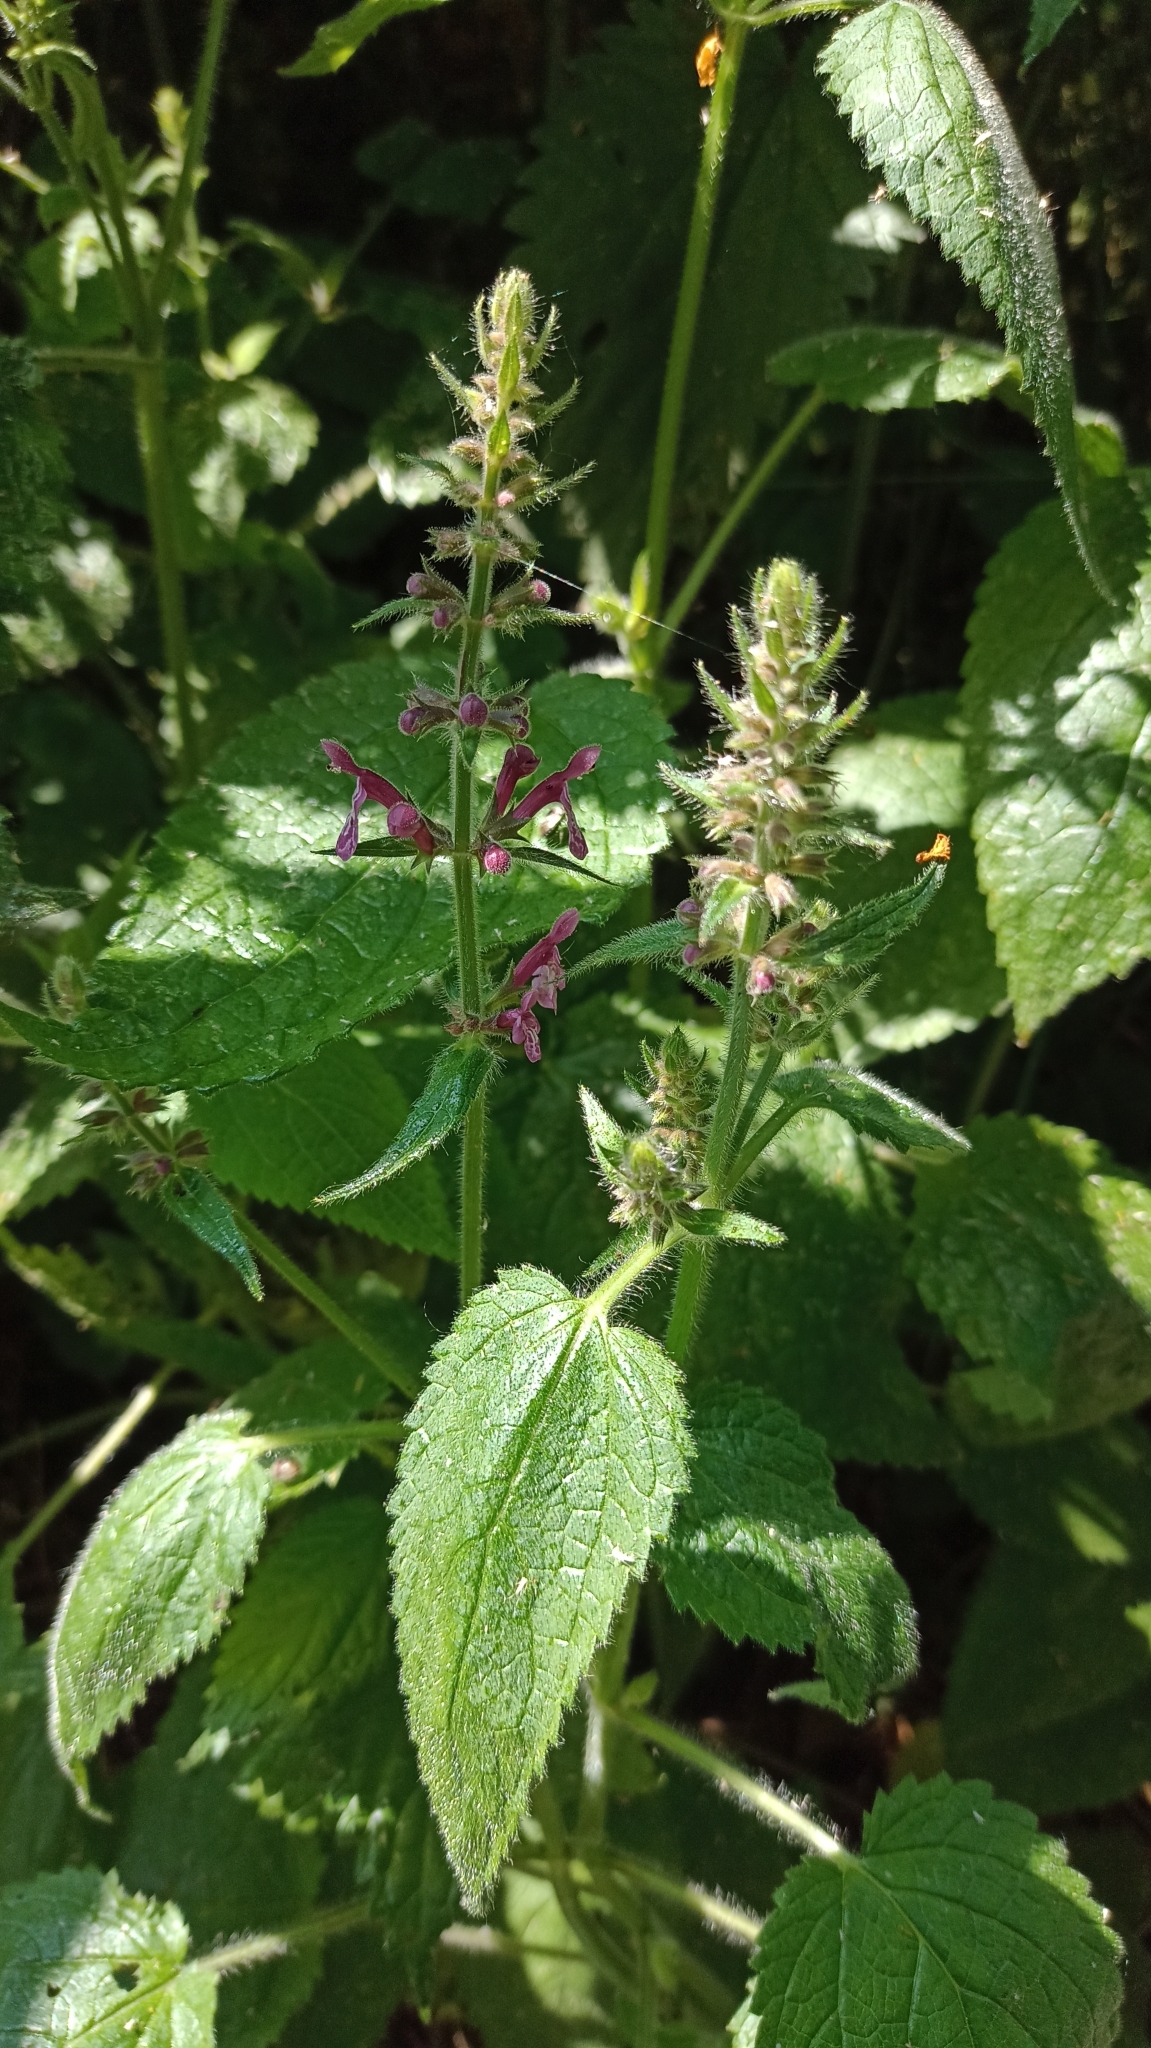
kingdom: Plantae
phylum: Tracheophyta
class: Magnoliopsida
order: Lamiales
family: Lamiaceae
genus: Stachys
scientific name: Stachys sylvatica
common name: Hedge woundwort
